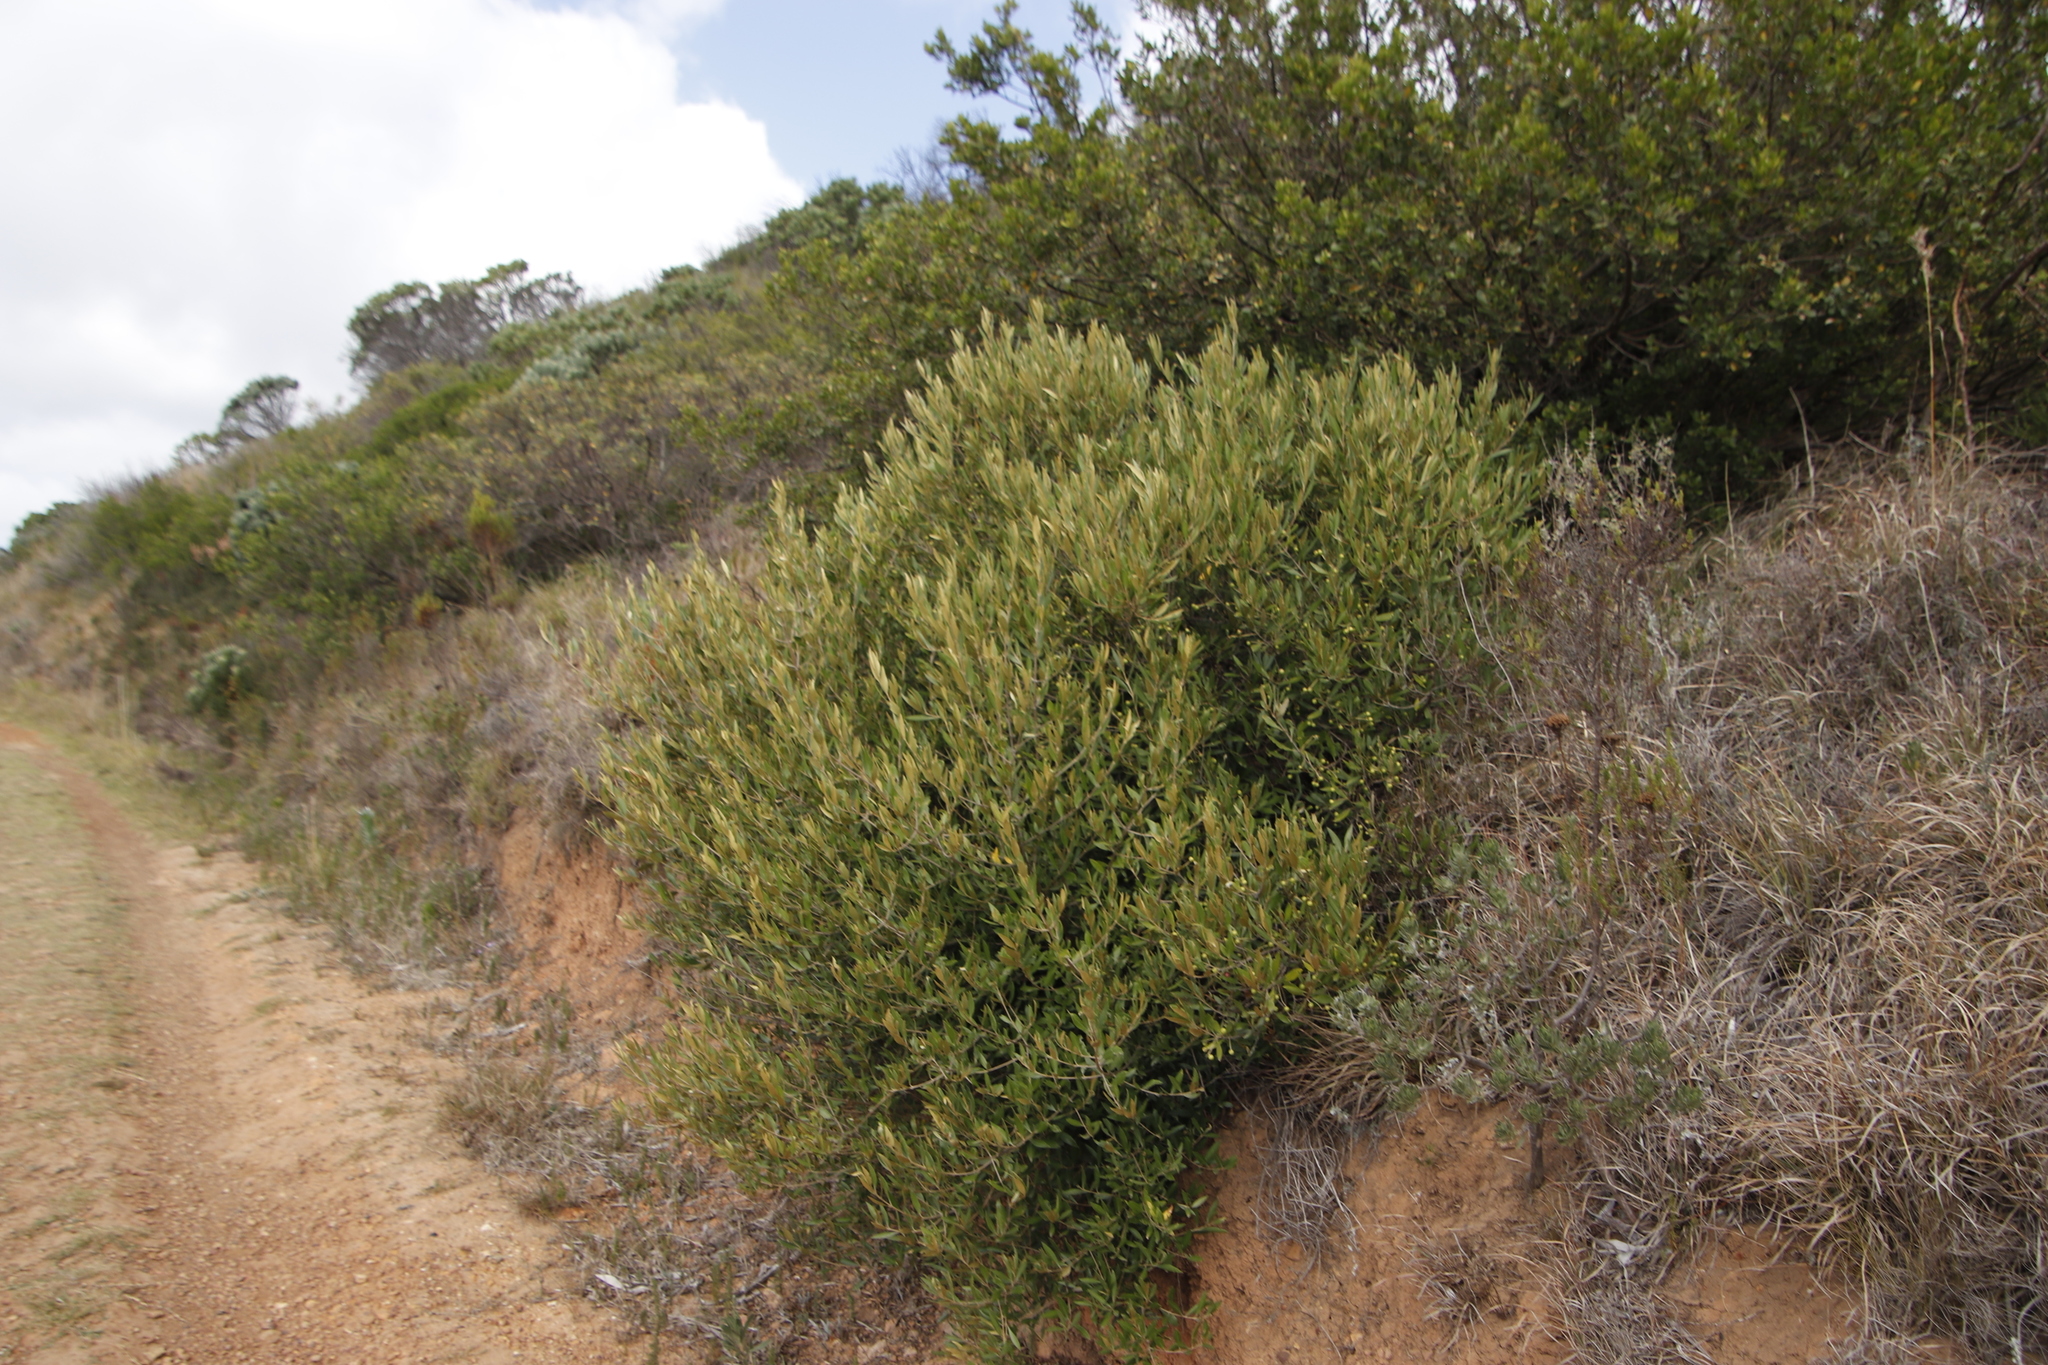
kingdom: Plantae
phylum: Tracheophyta
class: Magnoliopsida
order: Lamiales
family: Oleaceae
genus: Olea
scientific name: Olea europaea
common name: Olive
